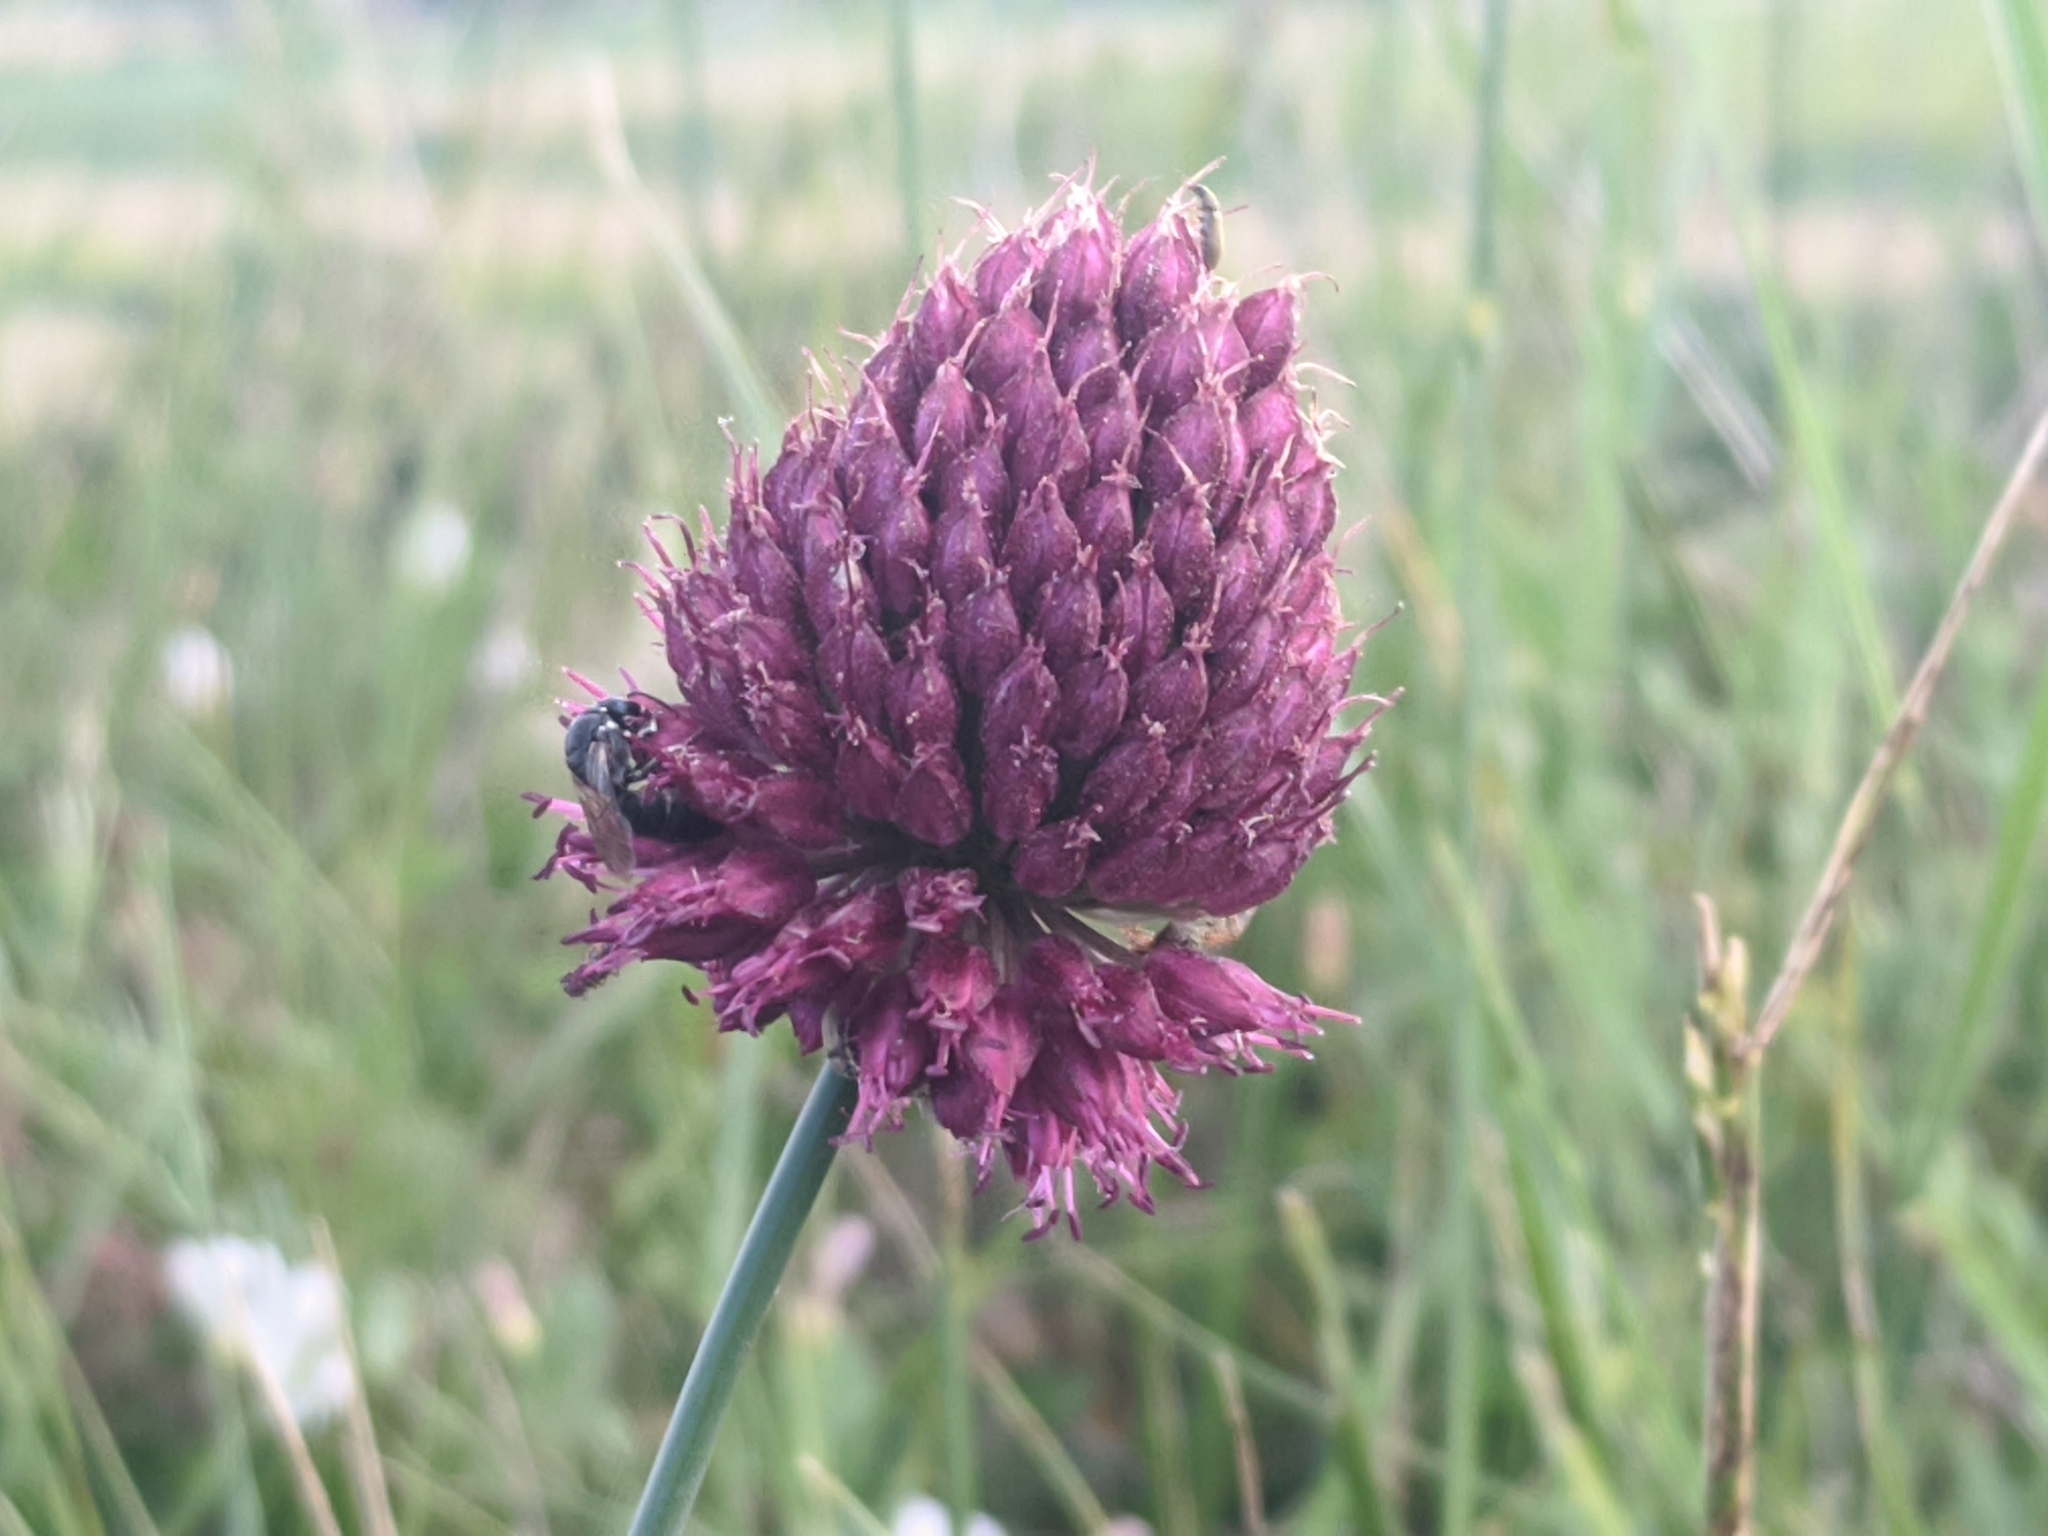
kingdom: Plantae
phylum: Tracheophyta
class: Liliopsida
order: Asparagales
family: Amaryllidaceae
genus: Allium
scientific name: Allium sphaerocephalon
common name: Round-headed leek
